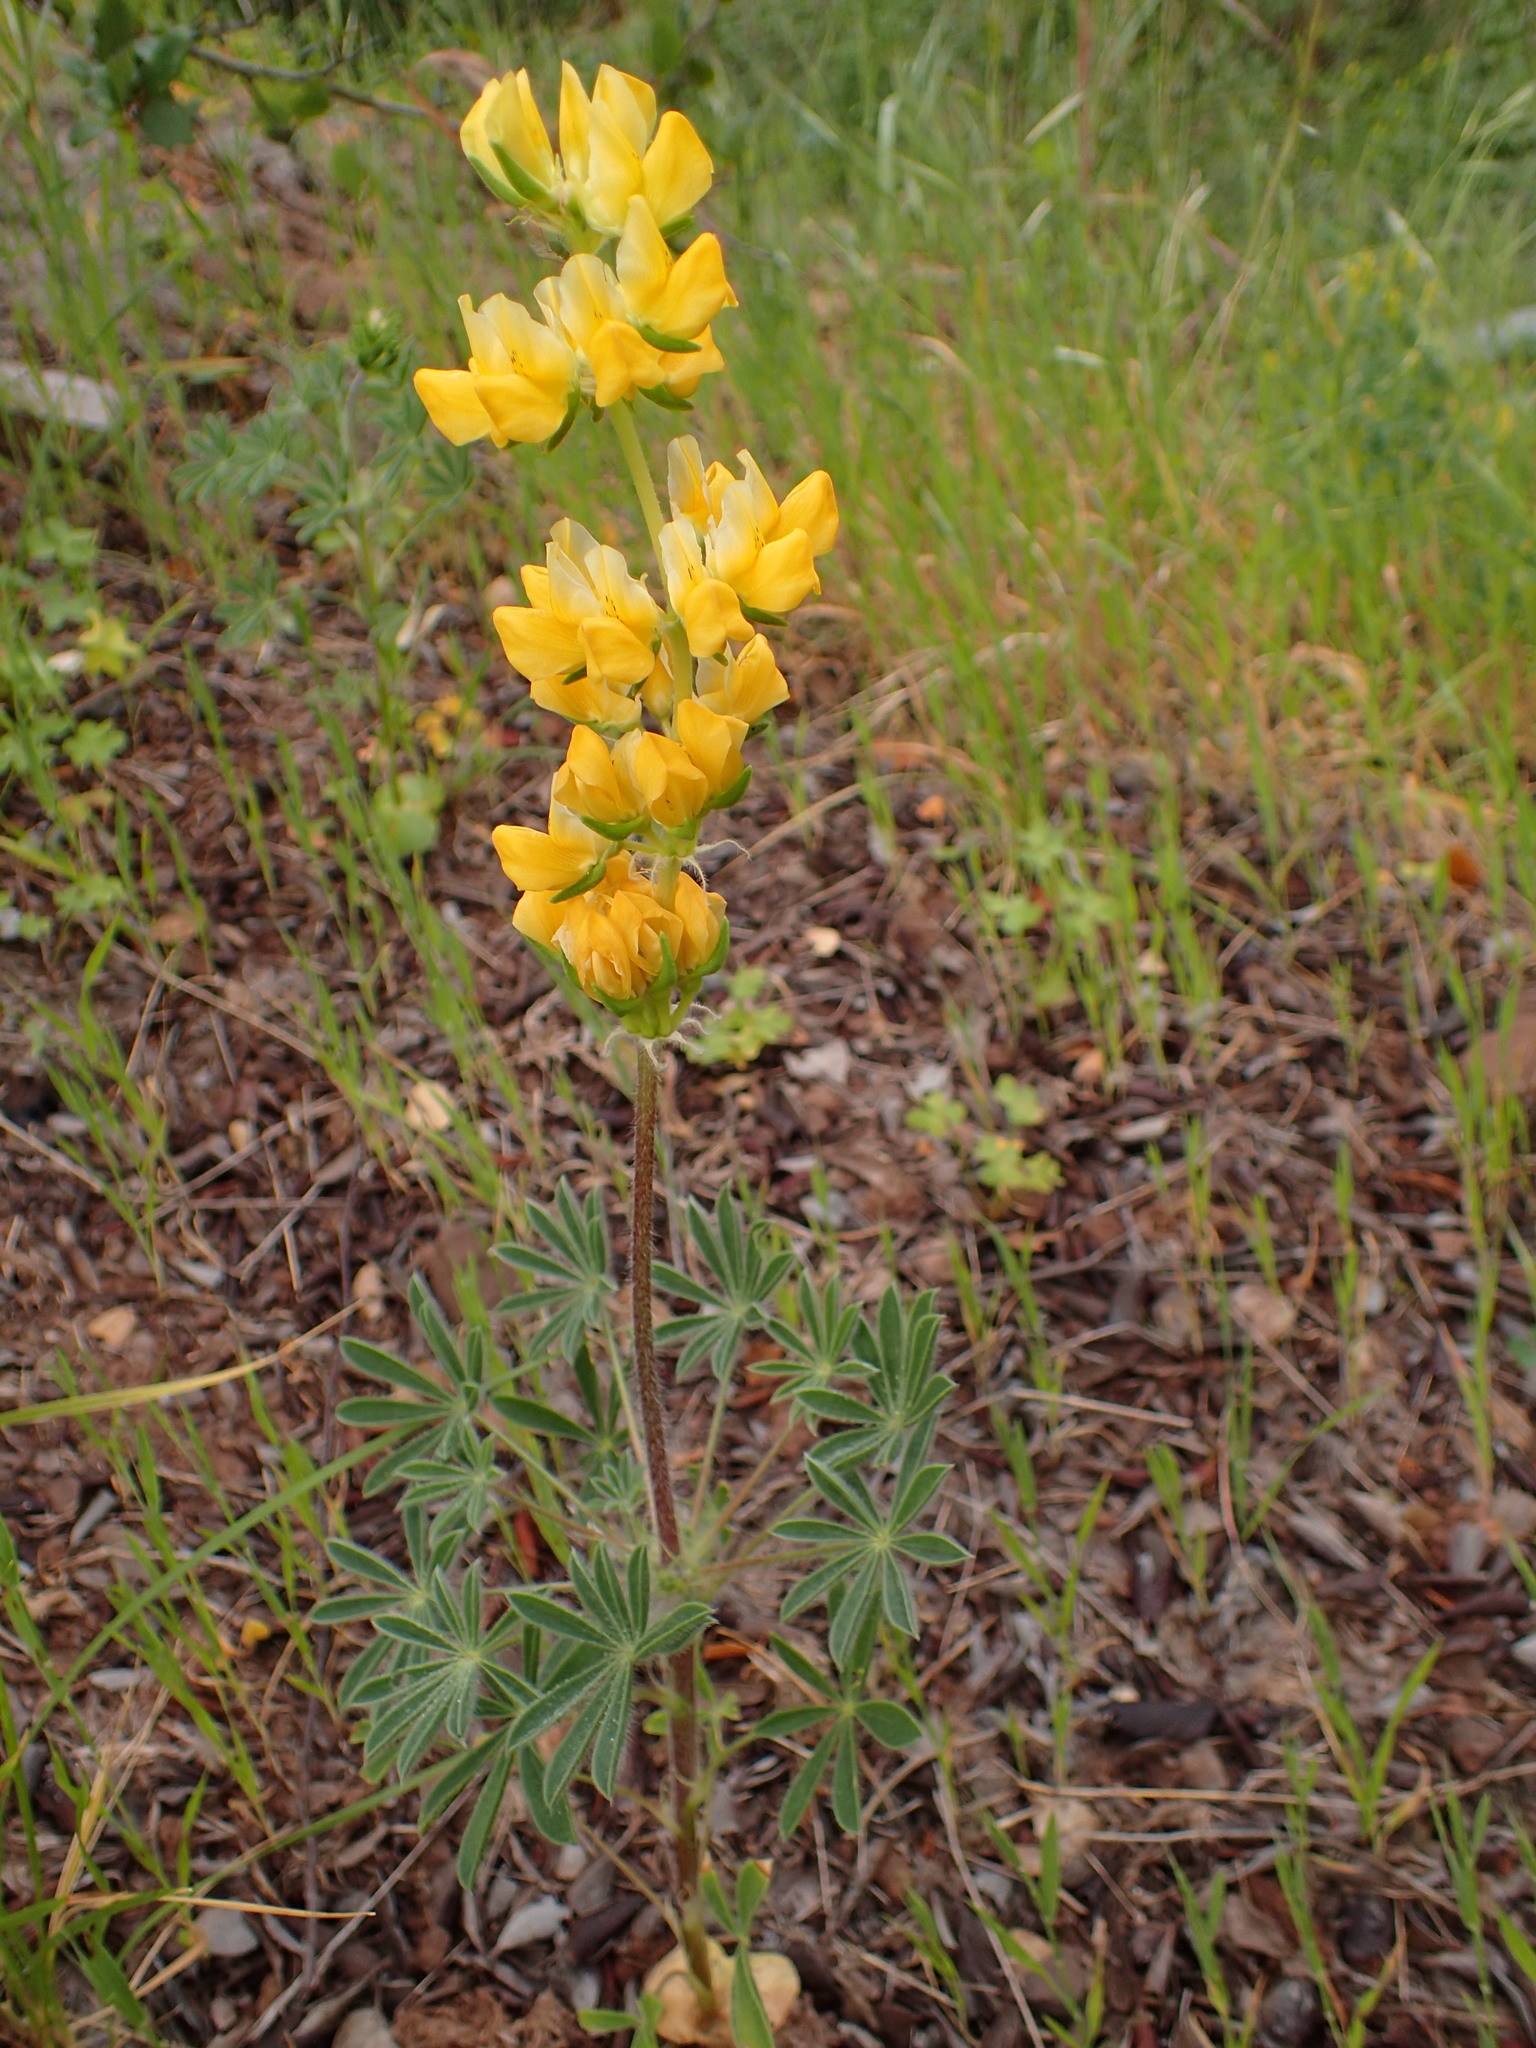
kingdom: Plantae
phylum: Tracheophyta
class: Magnoliopsida
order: Fabales
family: Fabaceae
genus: Lupinus
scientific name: Lupinus microcarpus
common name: Chick lupine
